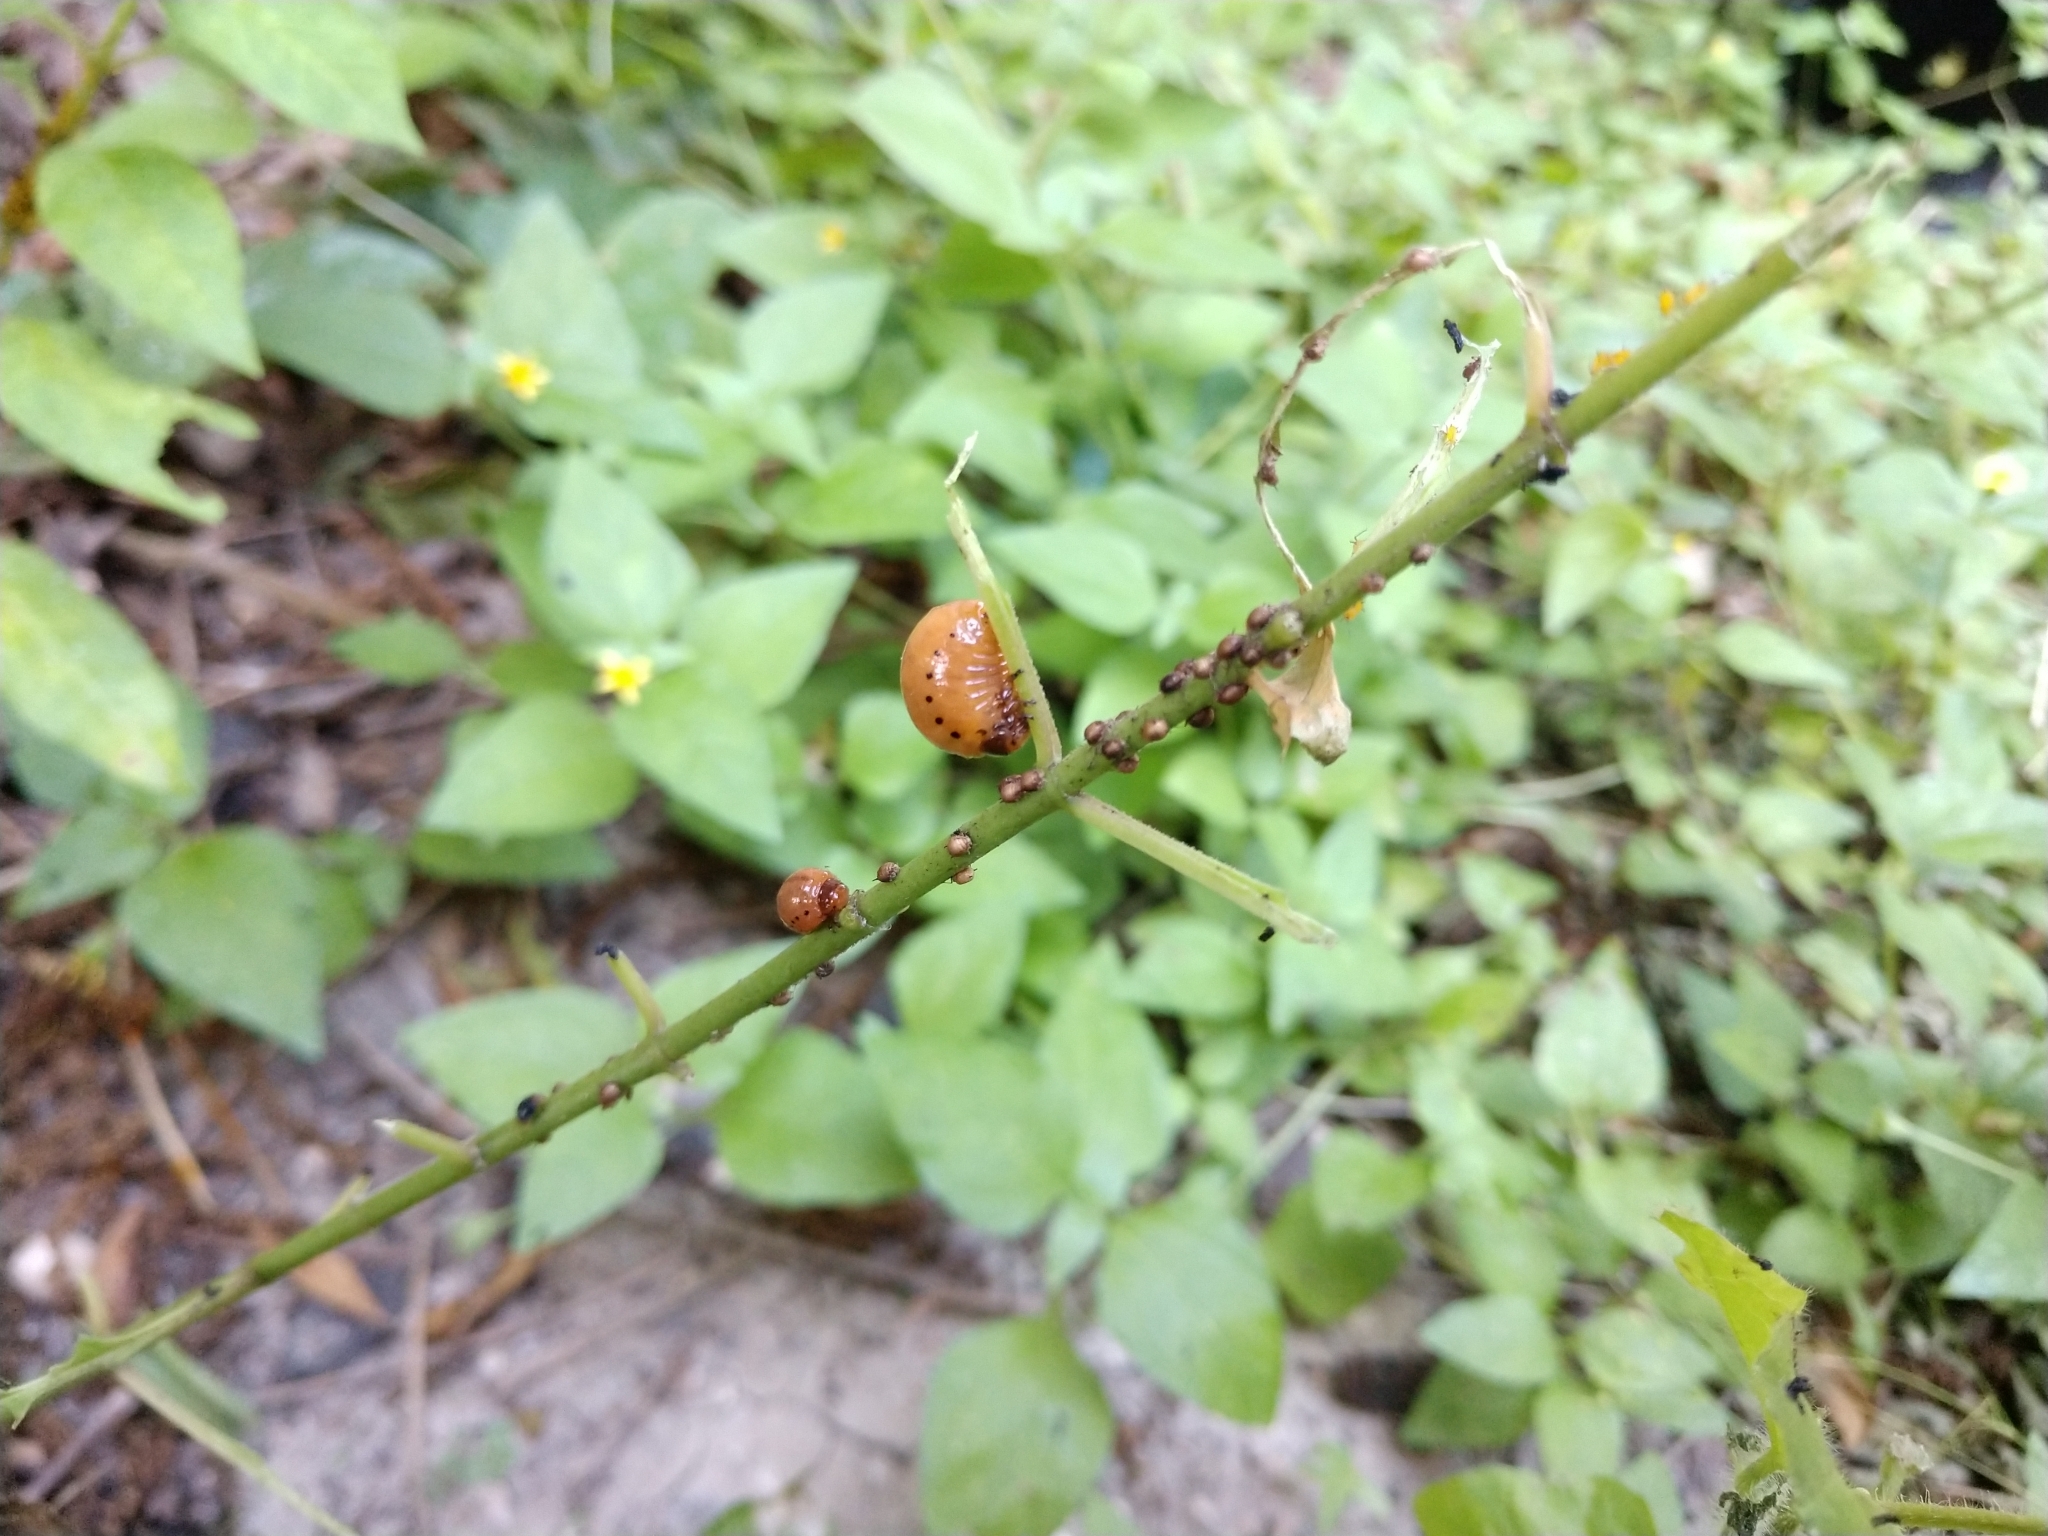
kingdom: Animalia
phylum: Arthropoda
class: Insecta
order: Coleoptera
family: Chrysomelidae
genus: Labidomera
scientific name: Labidomera clivicollis
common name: Swamp milkweed leaf beetle
